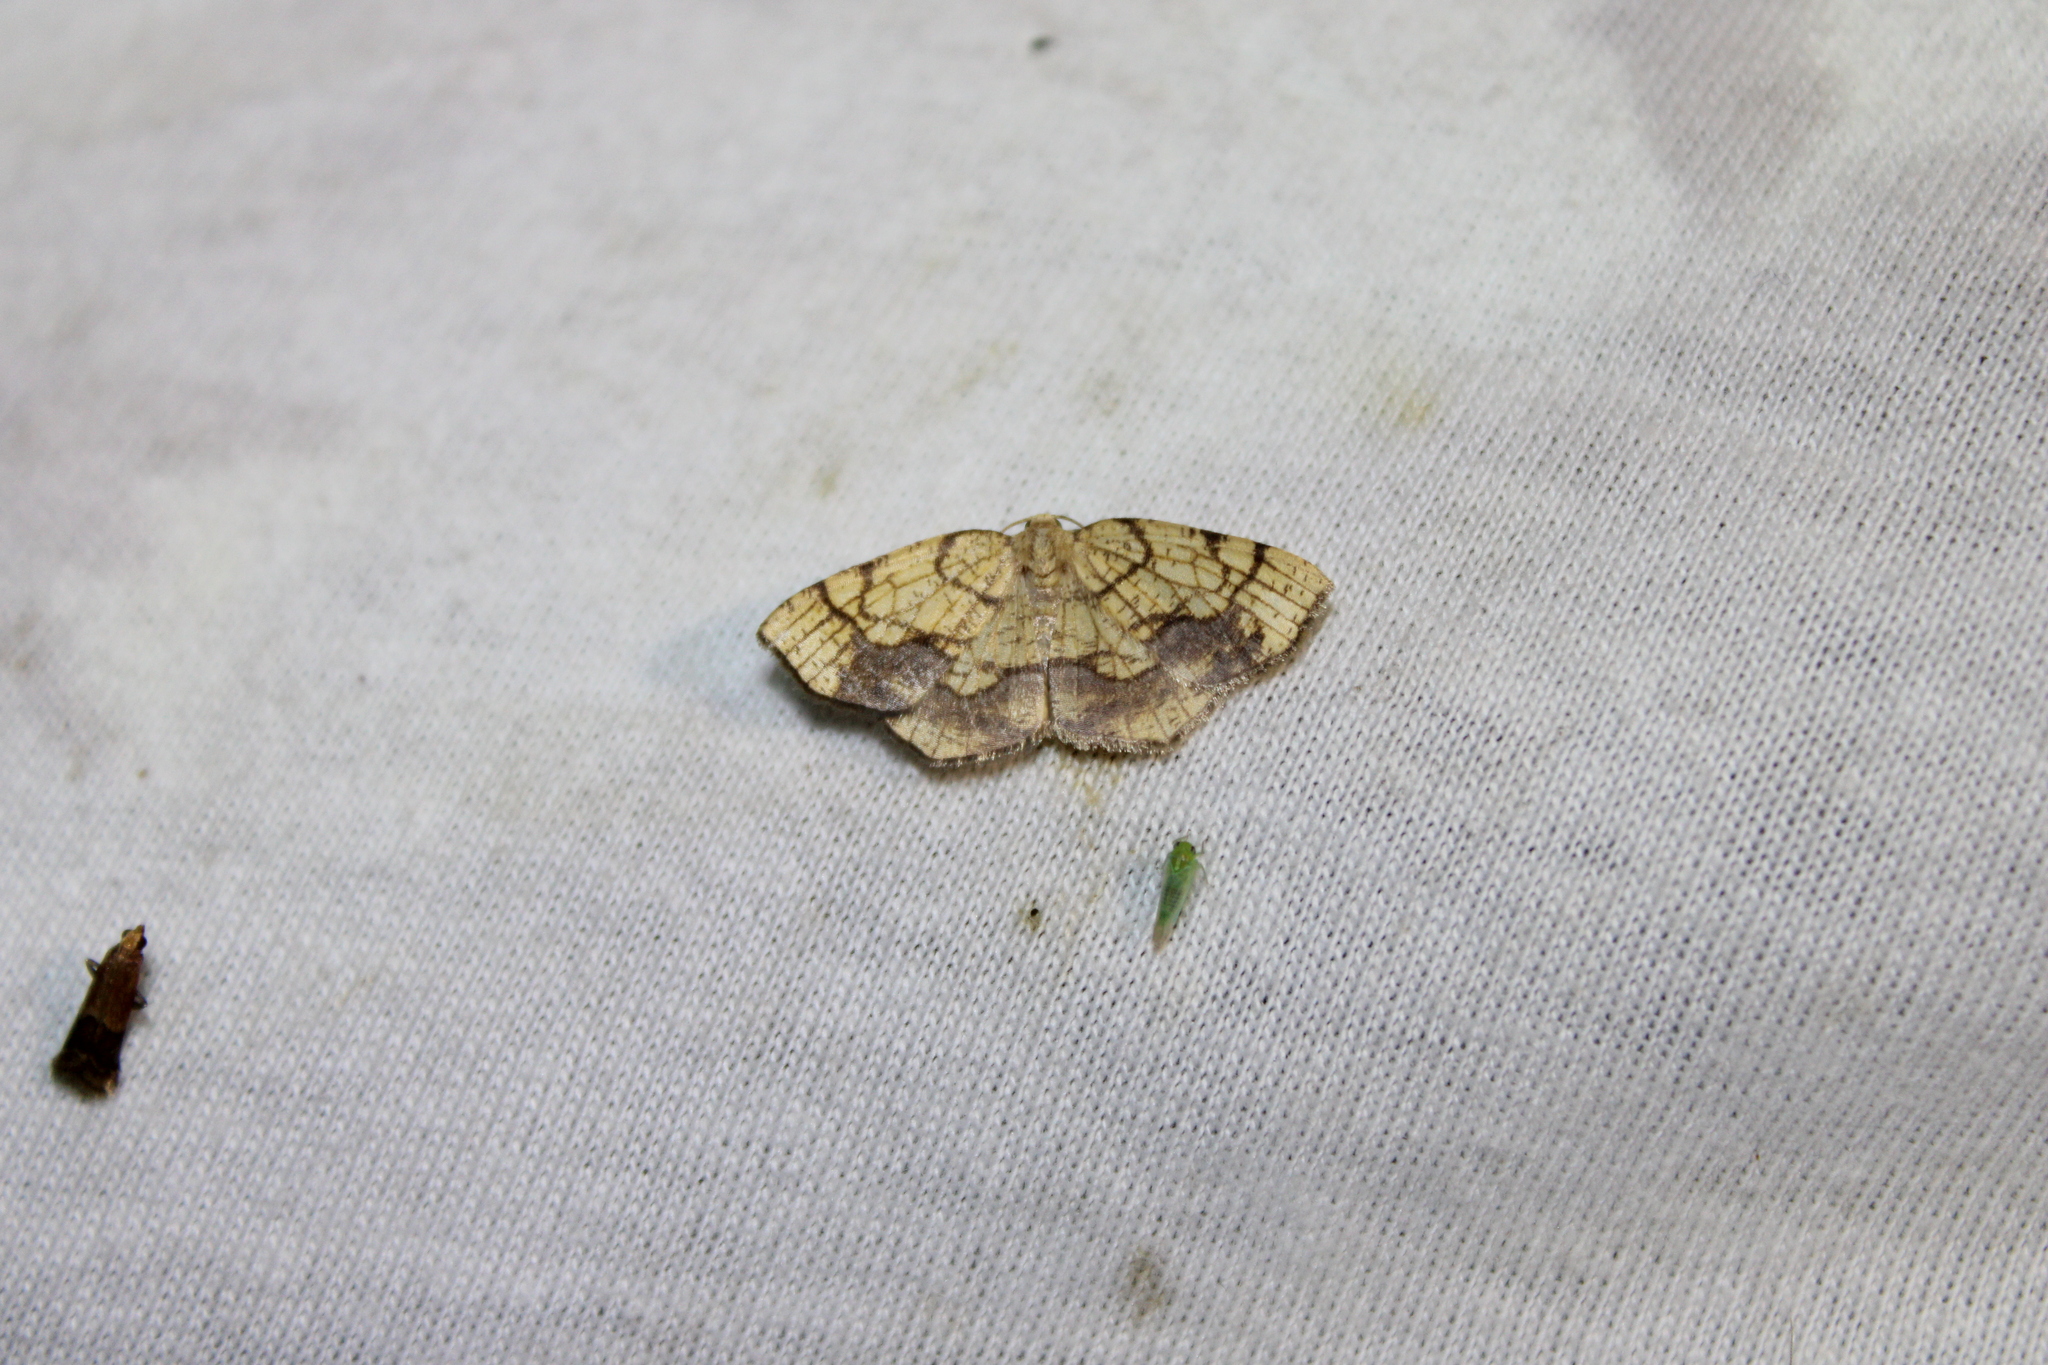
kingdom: Animalia
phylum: Arthropoda
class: Insecta
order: Lepidoptera
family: Geometridae
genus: Nematocampa
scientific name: Nematocampa resistaria
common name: Horned spanworm moth
